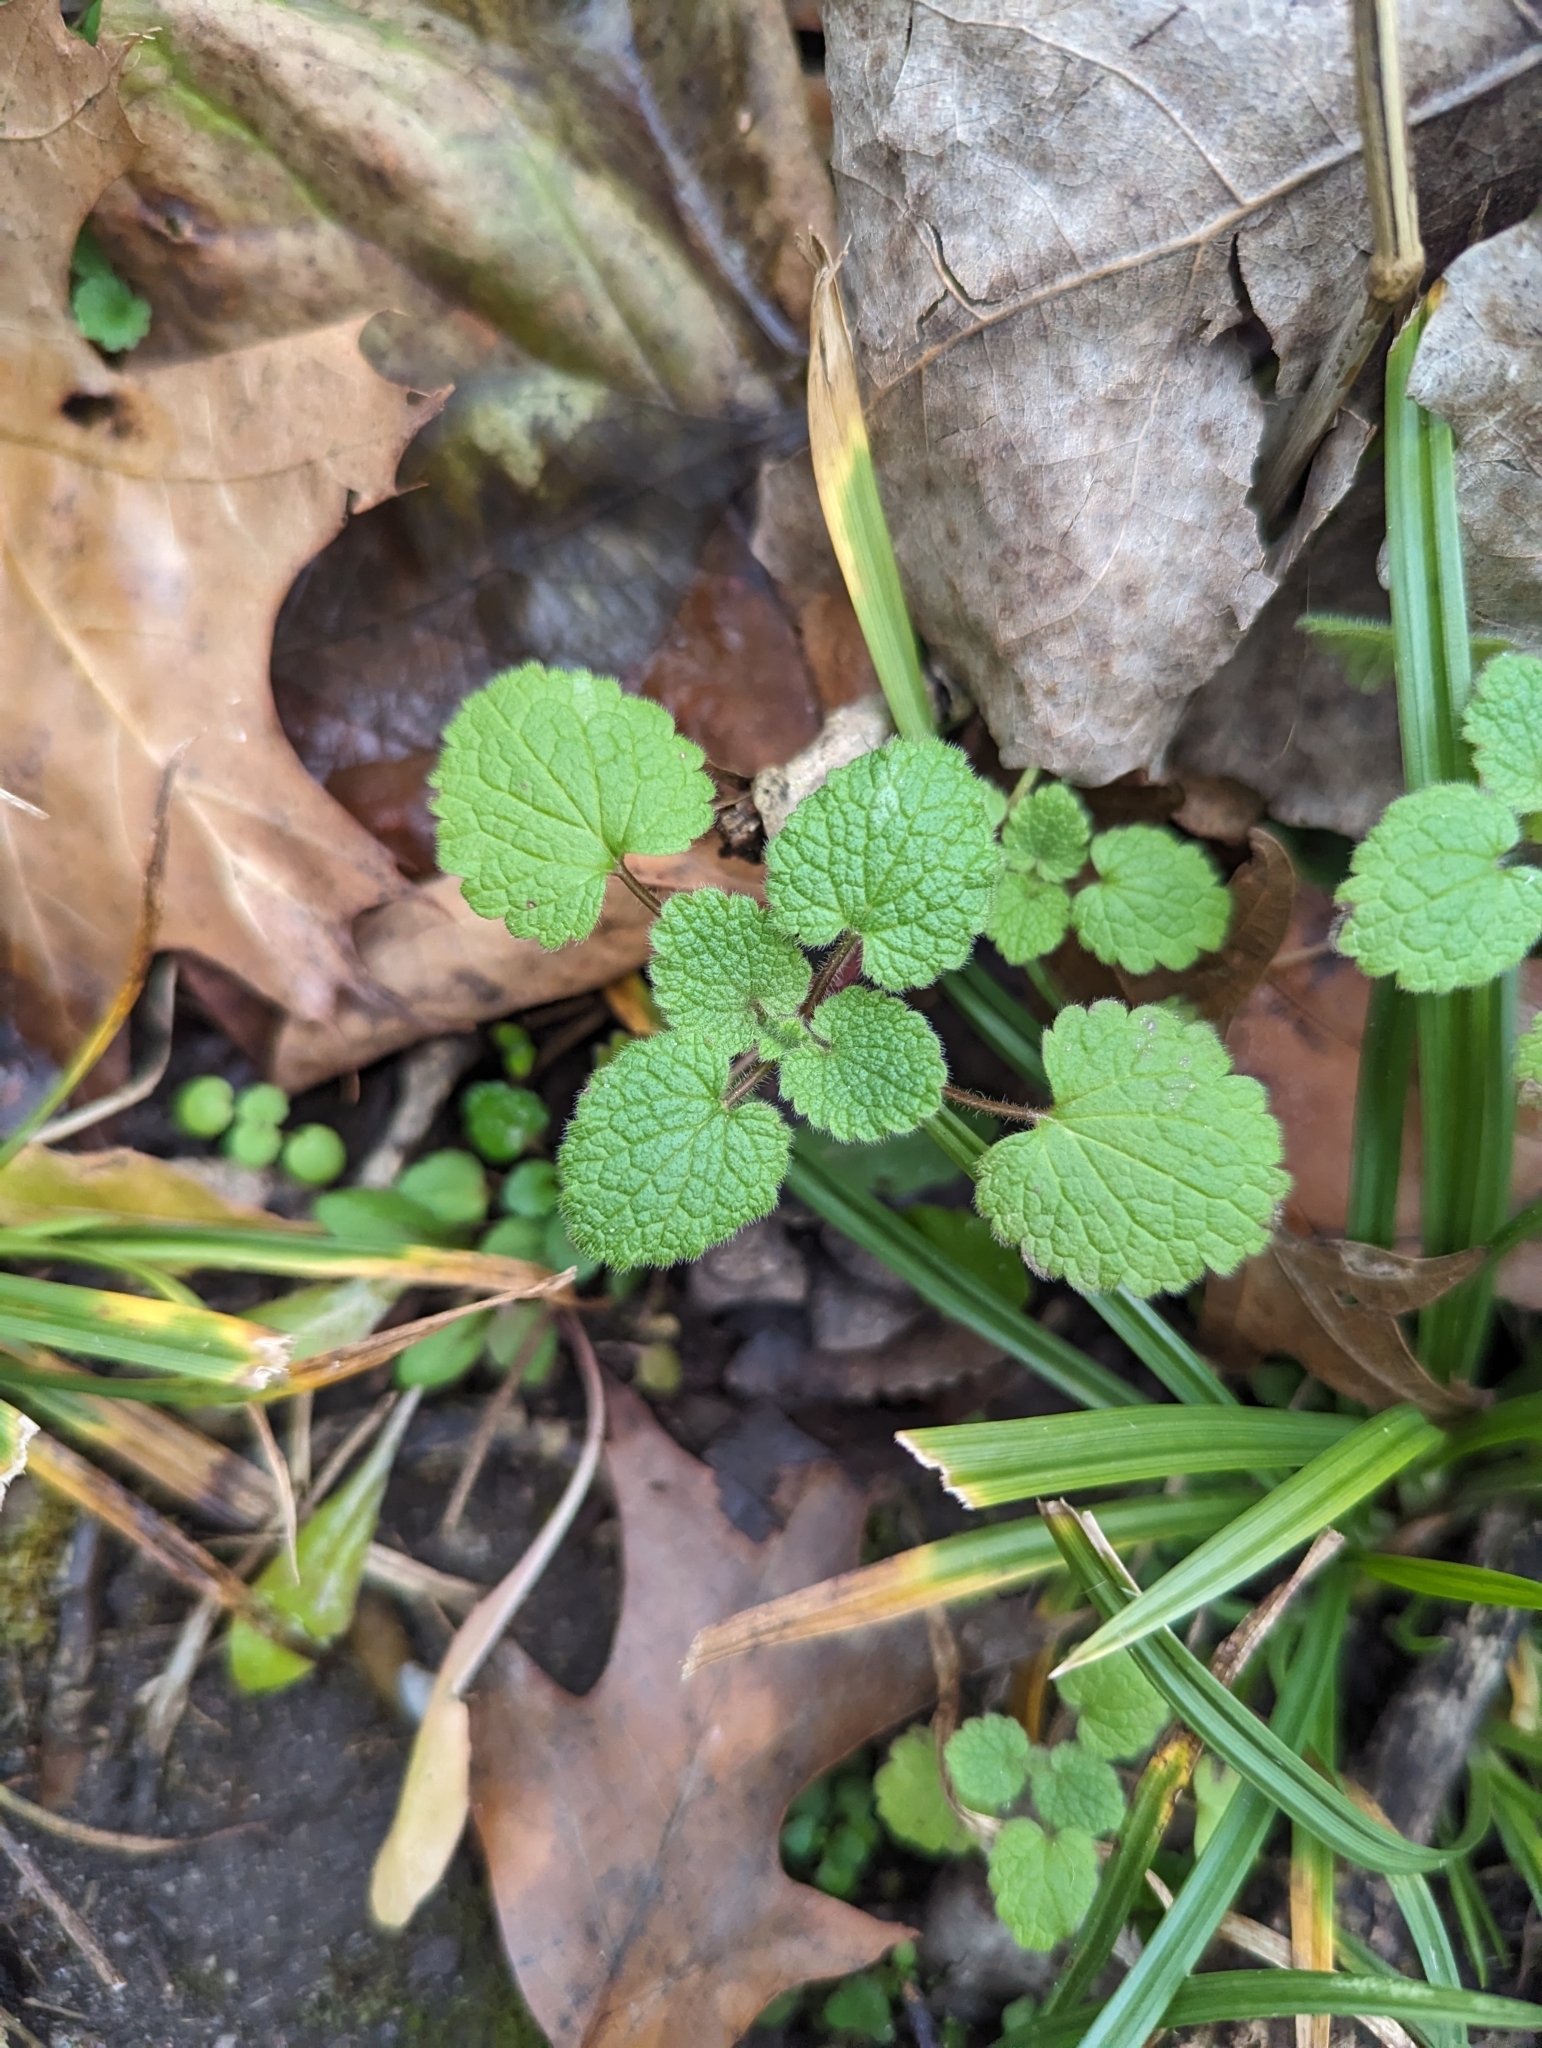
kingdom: Plantae
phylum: Tracheophyta
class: Magnoliopsida
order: Lamiales
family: Lamiaceae
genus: Lamium
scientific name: Lamium purpureum
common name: Red dead-nettle
